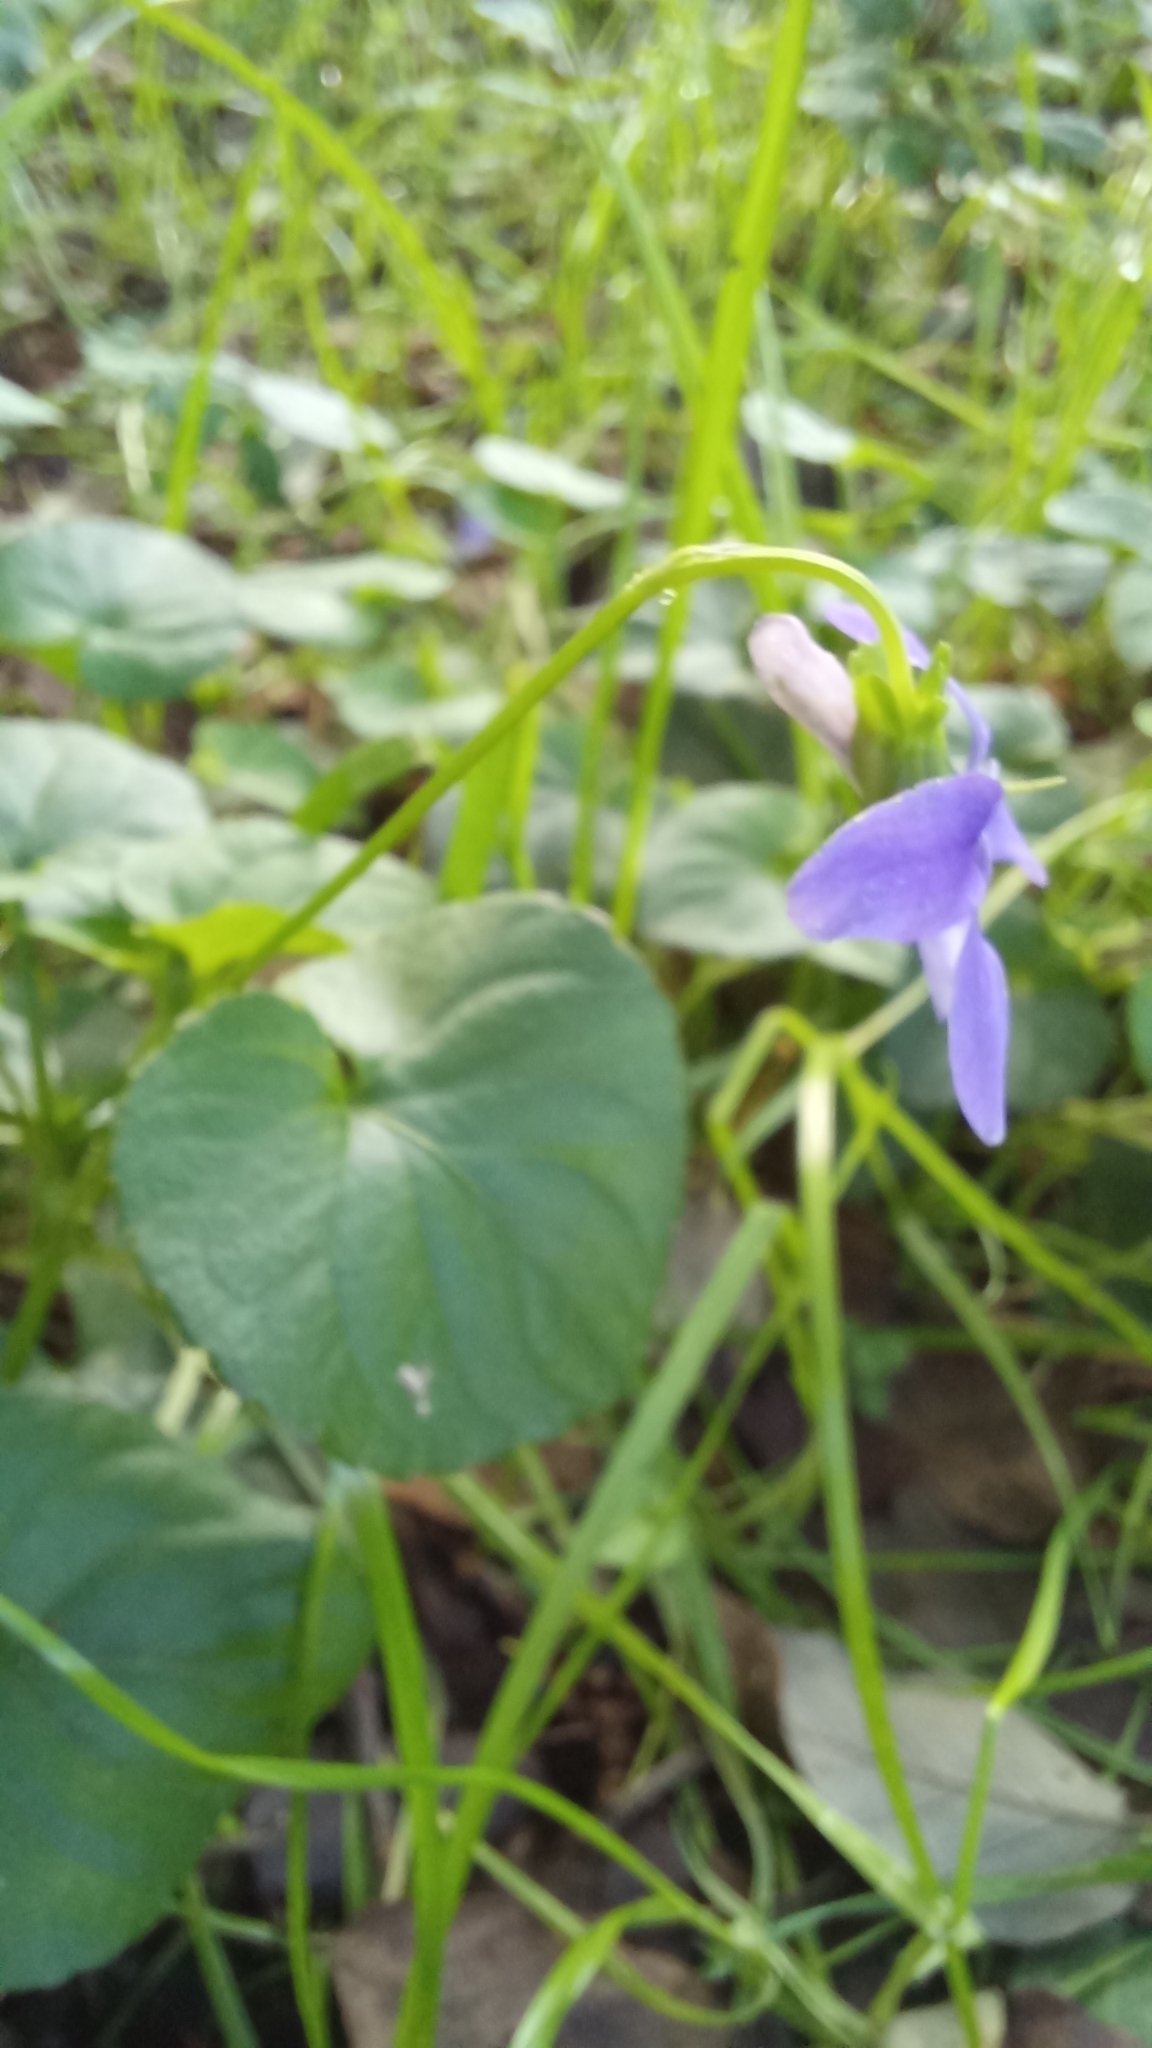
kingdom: Plantae
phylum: Tracheophyta
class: Magnoliopsida
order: Malpighiales
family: Violaceae
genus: Viola
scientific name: Viola riviniana
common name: Common dog-violet
